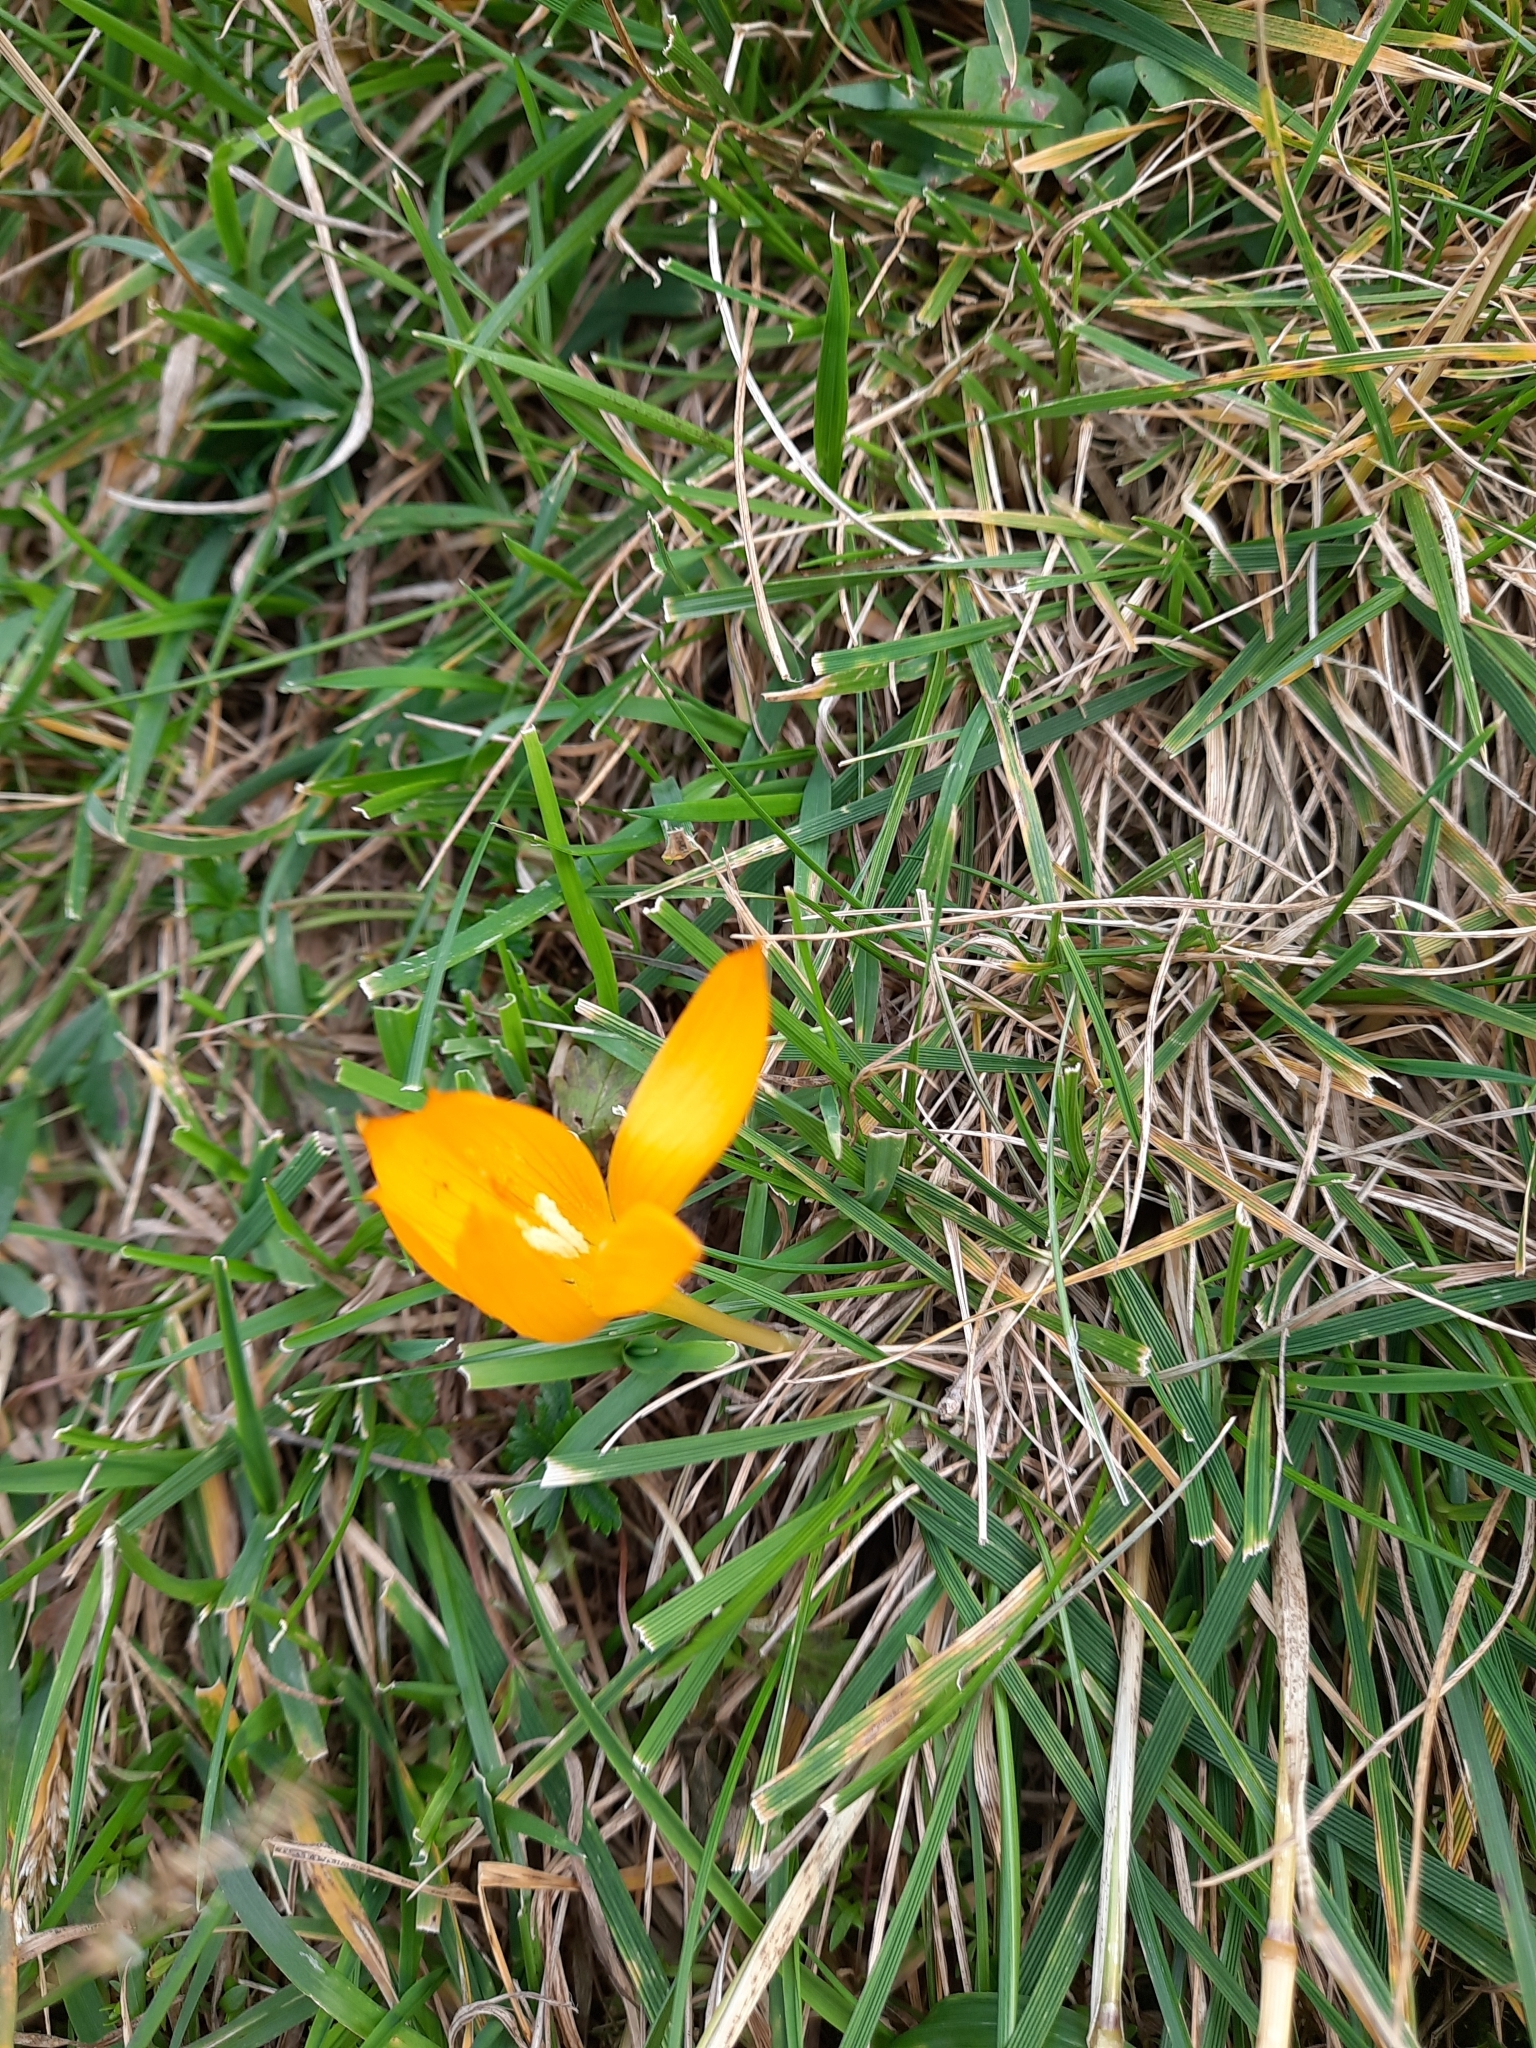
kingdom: Plantae
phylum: Tracheophyta
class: Liliopsida
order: Asparagales
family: Iridaceae
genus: Crocus
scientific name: Crocus scharojanii
